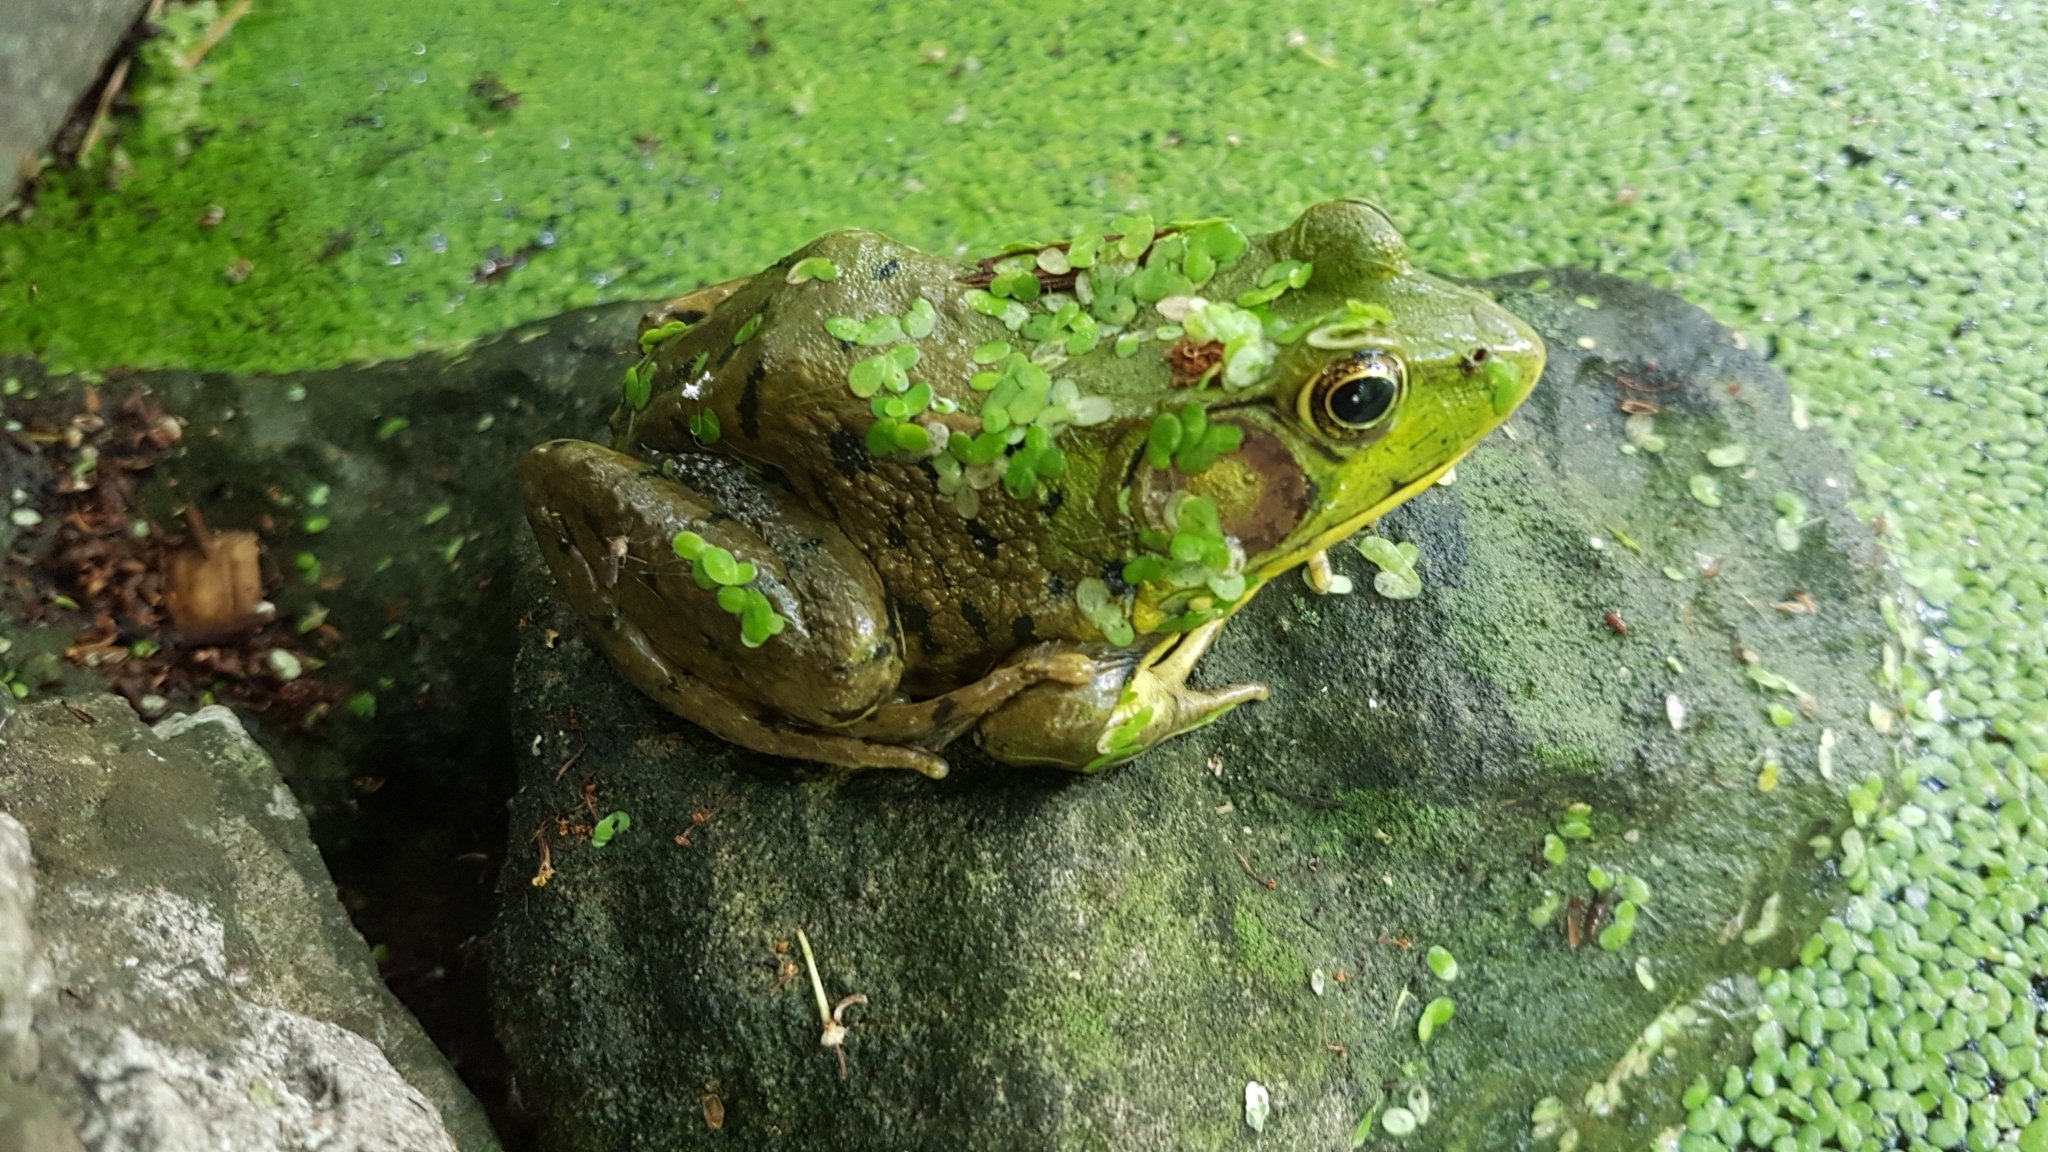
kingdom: Animalia
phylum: Chordata
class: Amphibia
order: Anura
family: Ranidae
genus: Lithobates
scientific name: Lithobates clamitans
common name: Green frog
